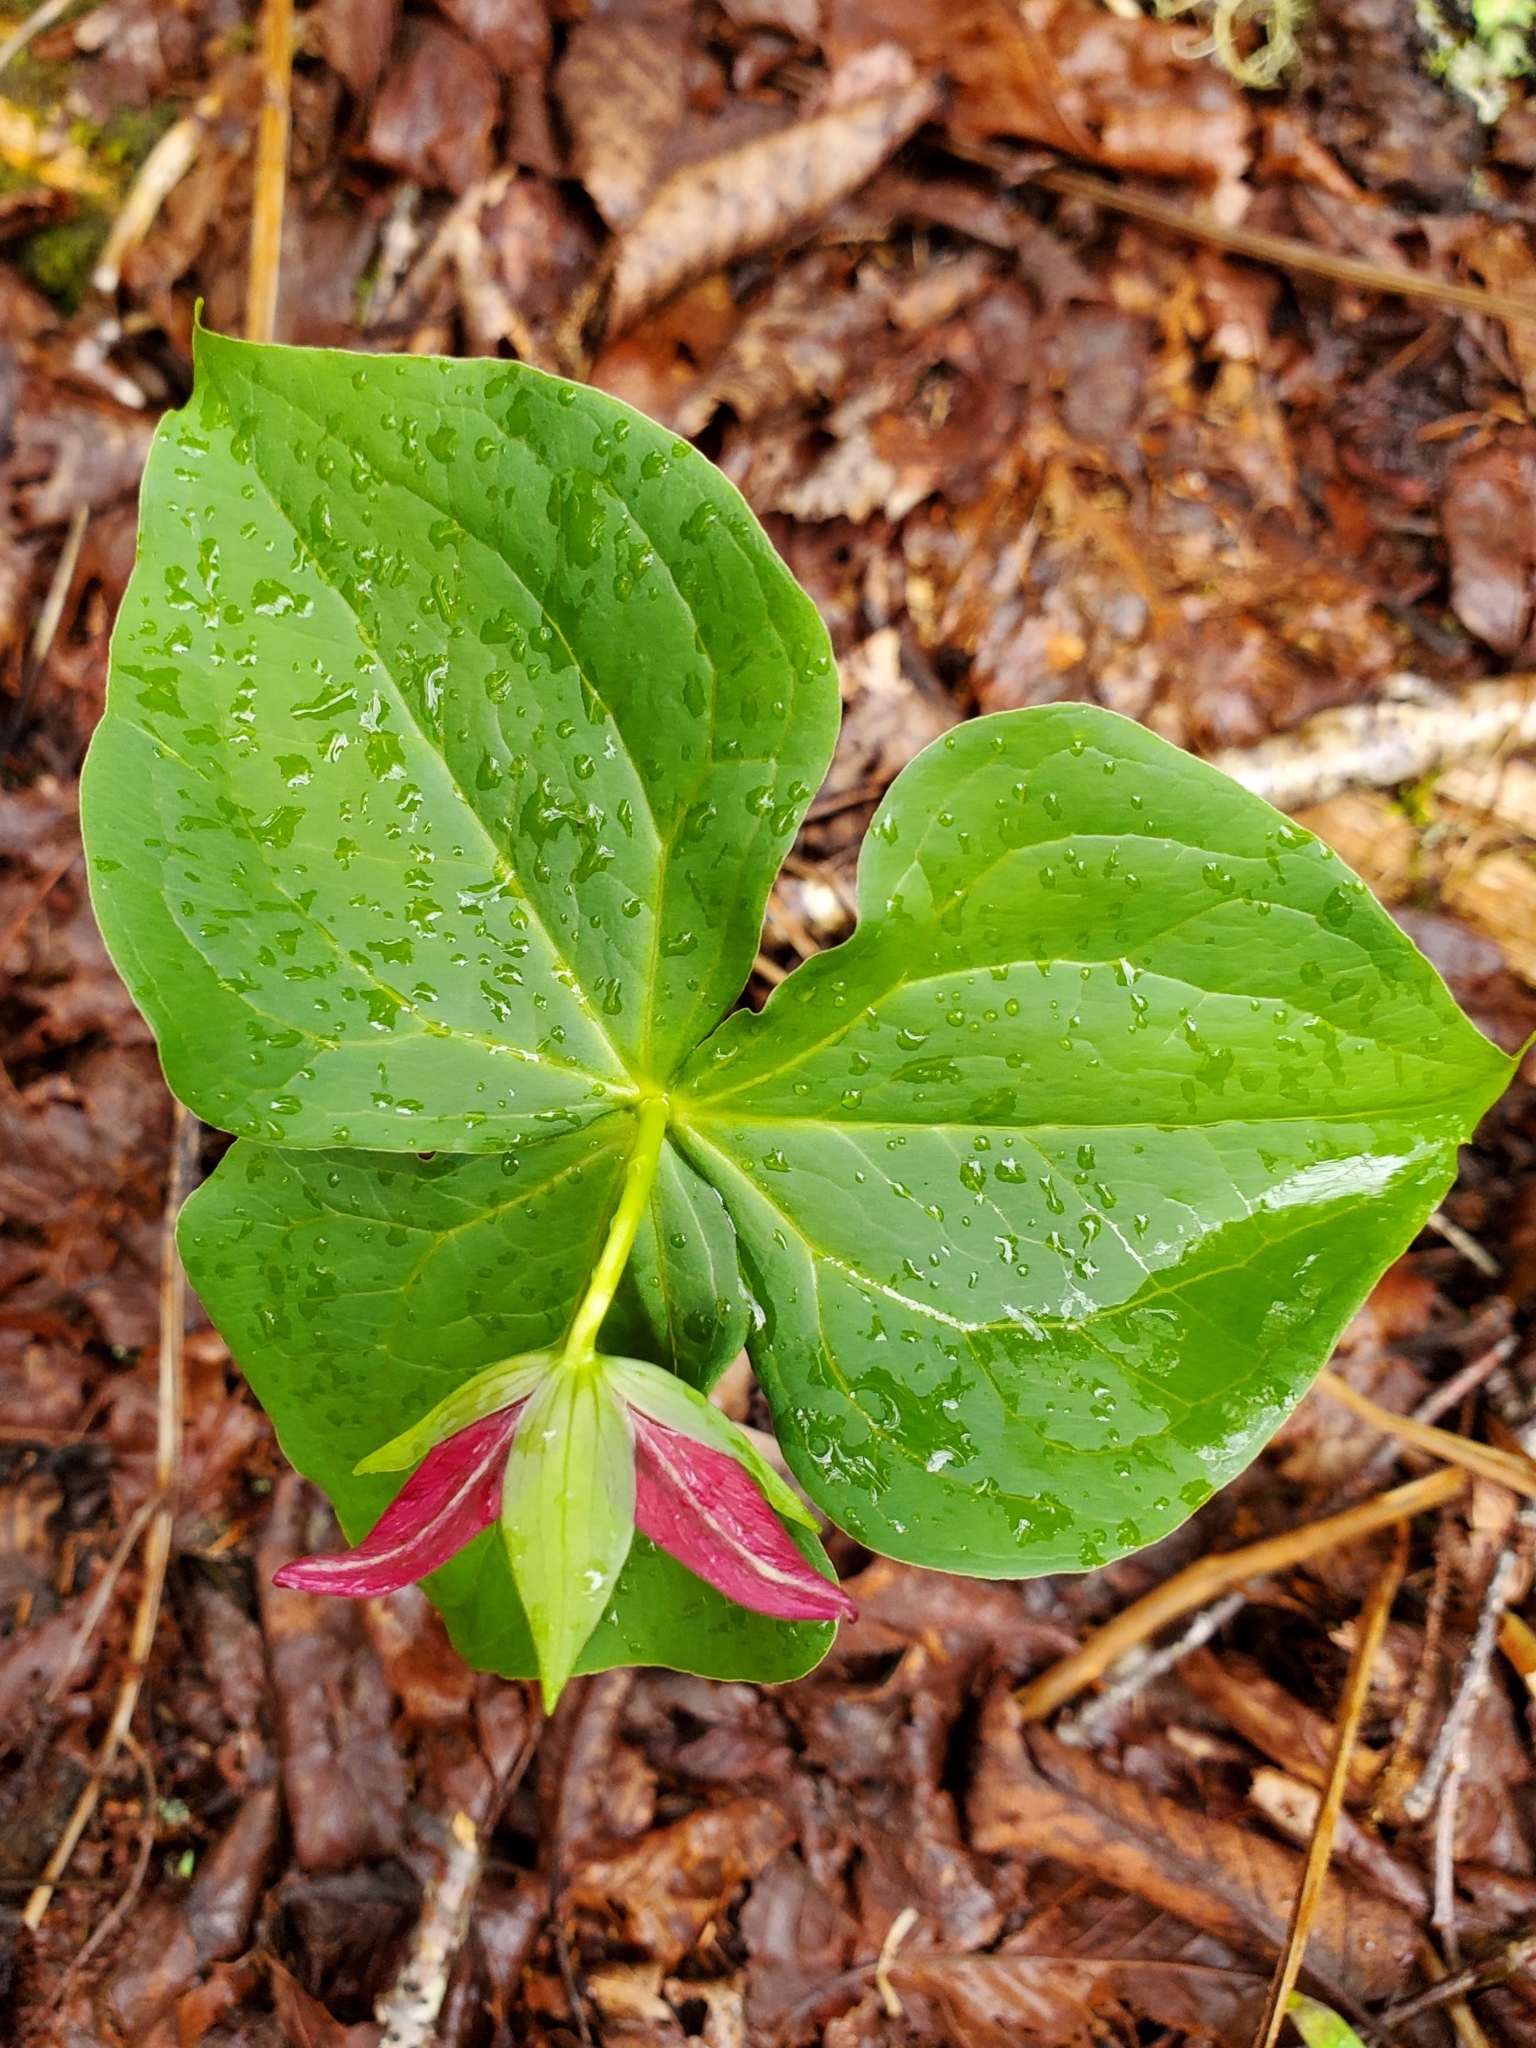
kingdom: Plantae
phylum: Tracheophyta
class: Liliopsida
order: Liliales
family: Melanthiaceae
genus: Trillium
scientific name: Trillium erectum
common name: Purple trillium
